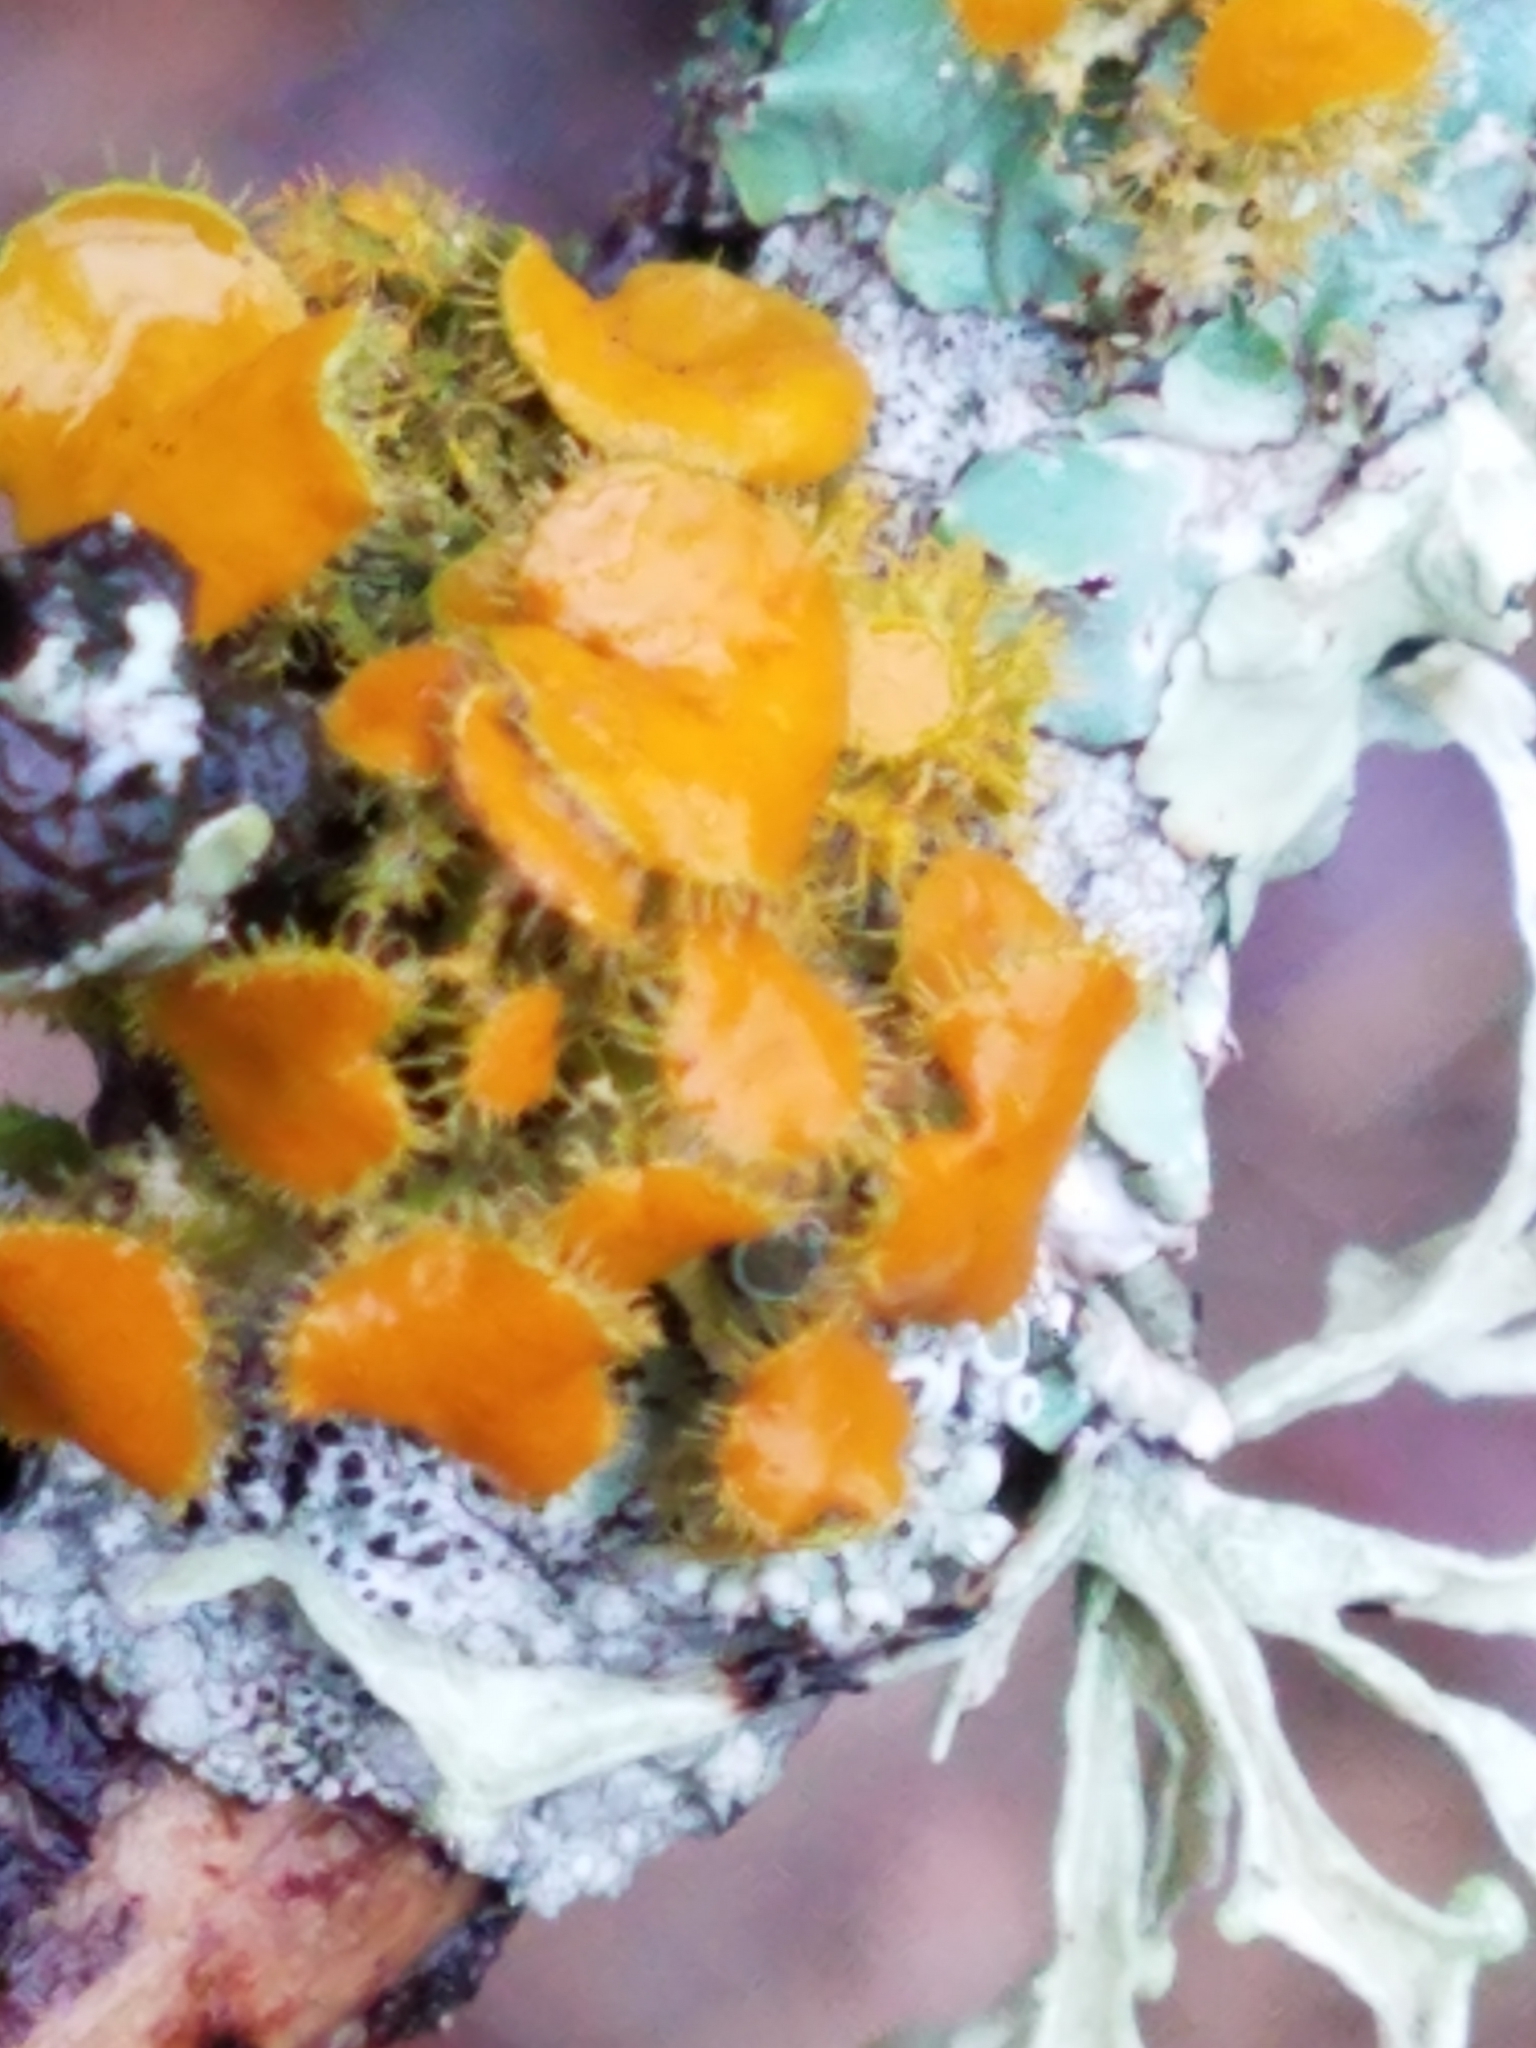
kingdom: Fungi
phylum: Ascomycota
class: Lecanoromycetes
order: Teloschistales
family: Teloschistaceae
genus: Niorma
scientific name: Niorma chrysophthalma
